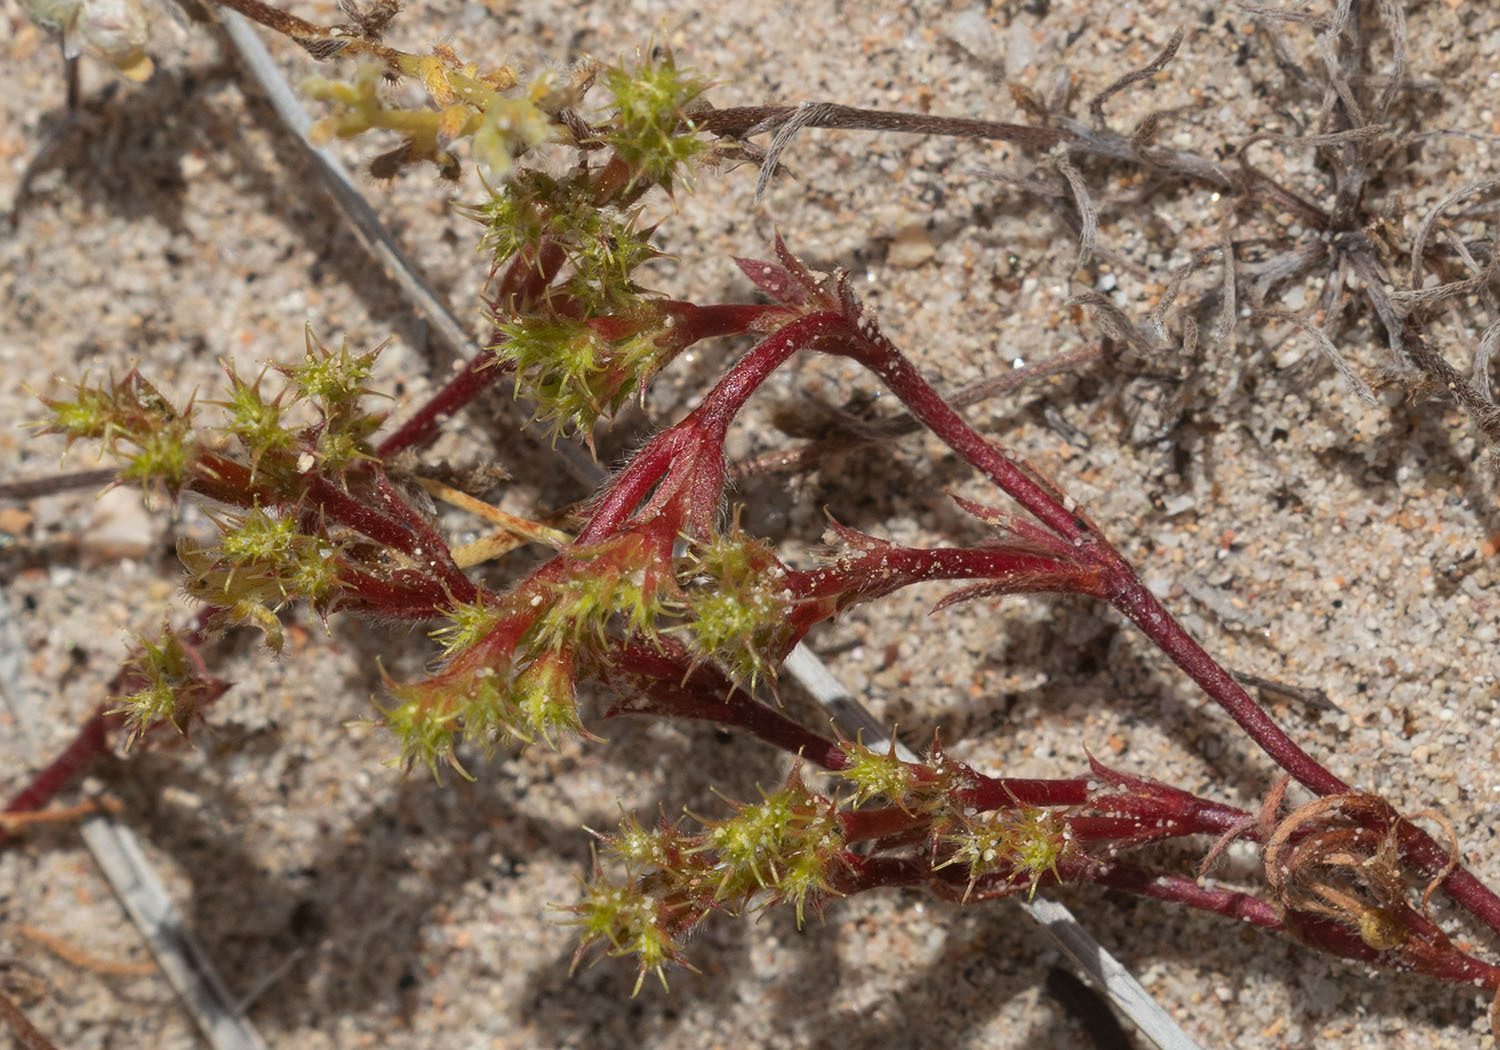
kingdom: Plantae
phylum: Tracheophyta
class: Magnoliopsida
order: Caryophyllales
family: Polygonaceae
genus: Lastarriaea
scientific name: Lastarriaea coriacea
